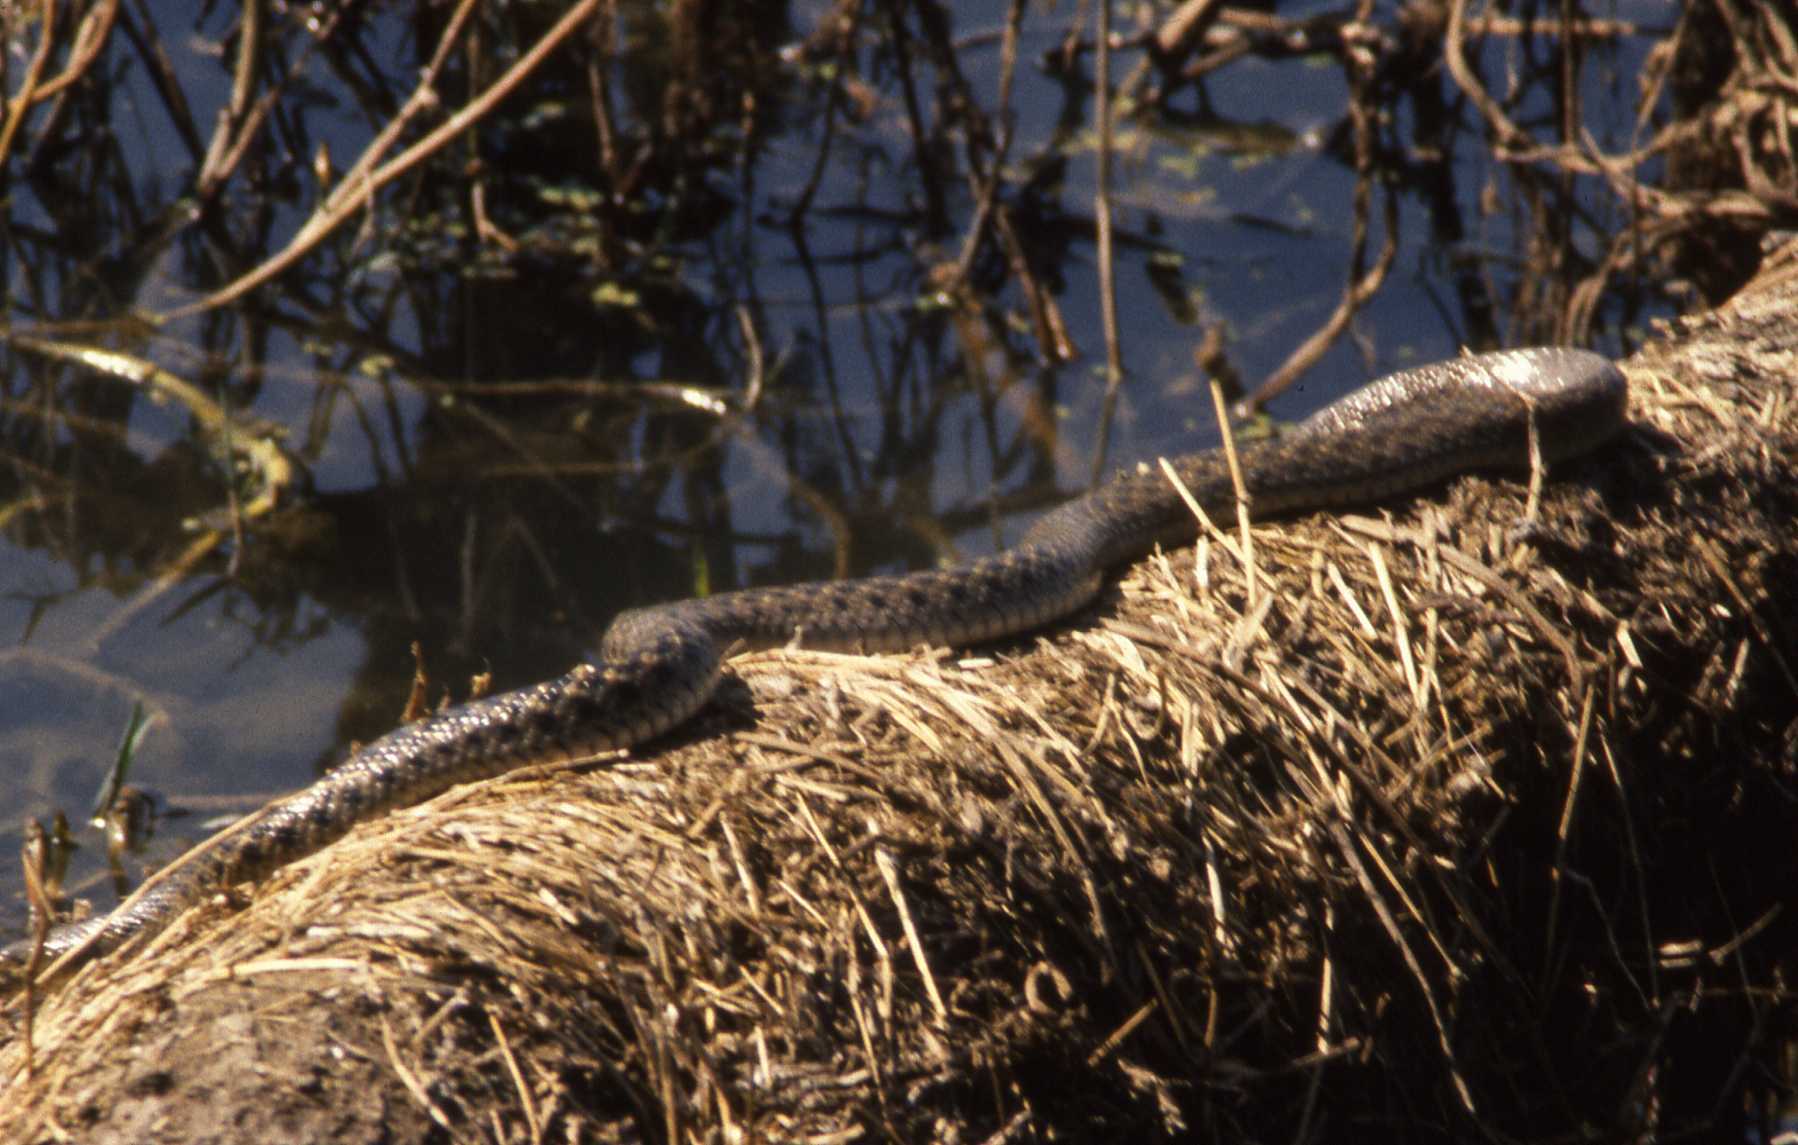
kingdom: Animalia
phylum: Chordata
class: Squamata
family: Colubridae
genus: Fowlea
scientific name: Fowlea piscator
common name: Asiatic water snake
